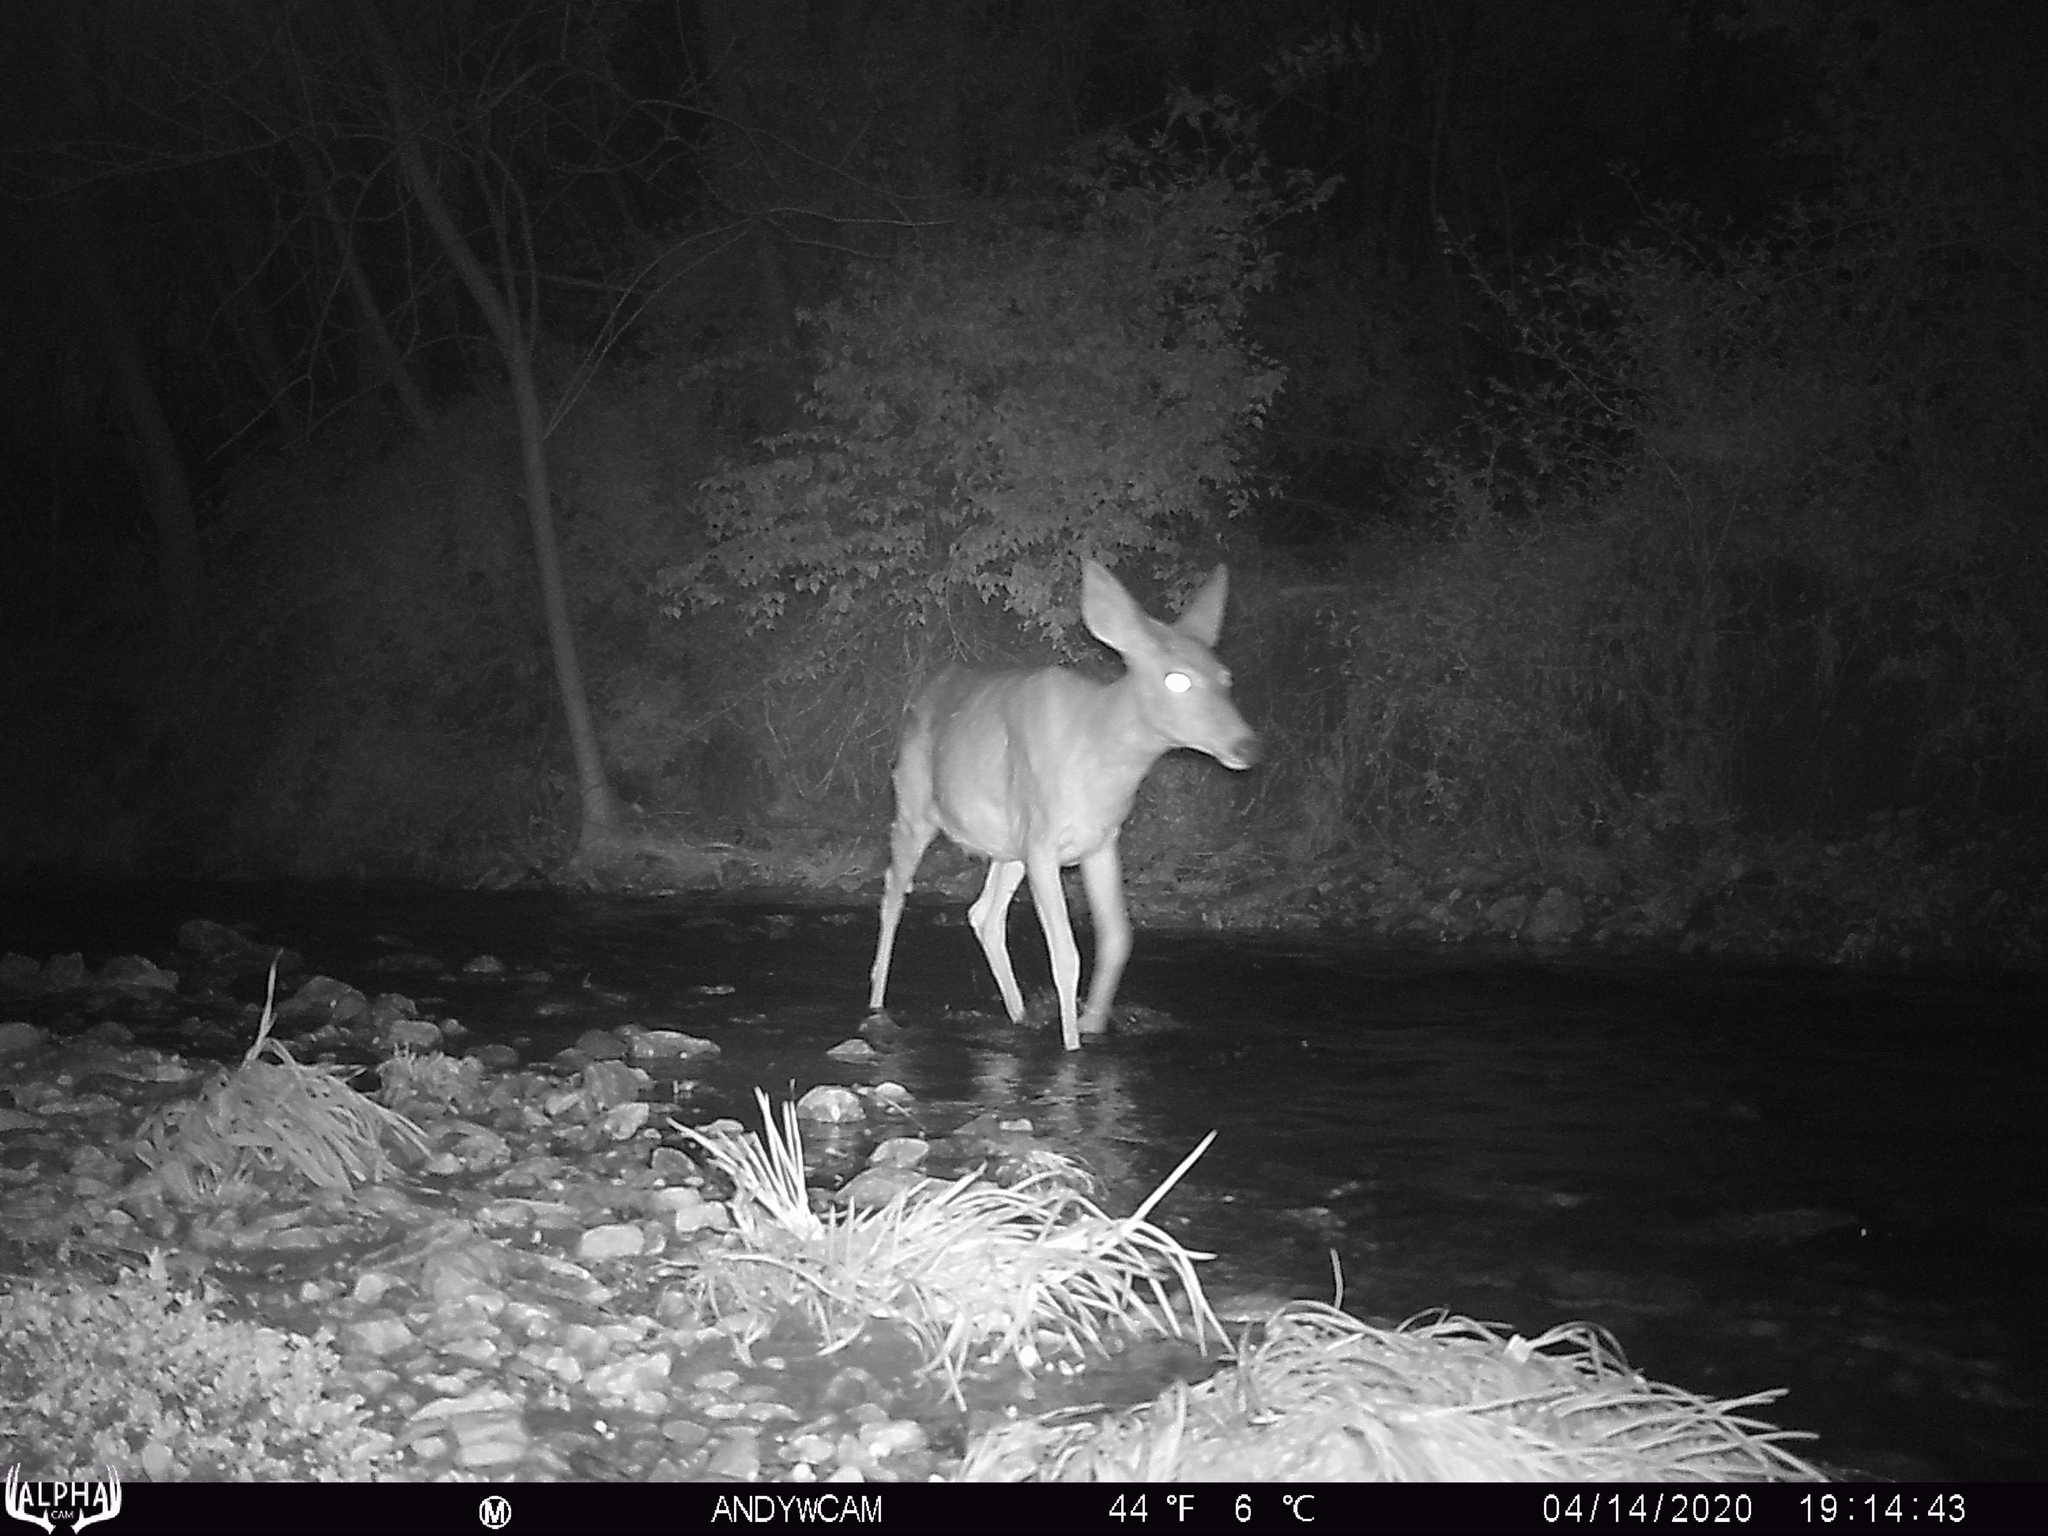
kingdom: Animalia
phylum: Chordata
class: Mammalia
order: Artiodactyla
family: Cervidae
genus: Odocoileus
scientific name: Odocoileus virginianus
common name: White-tailed deer
